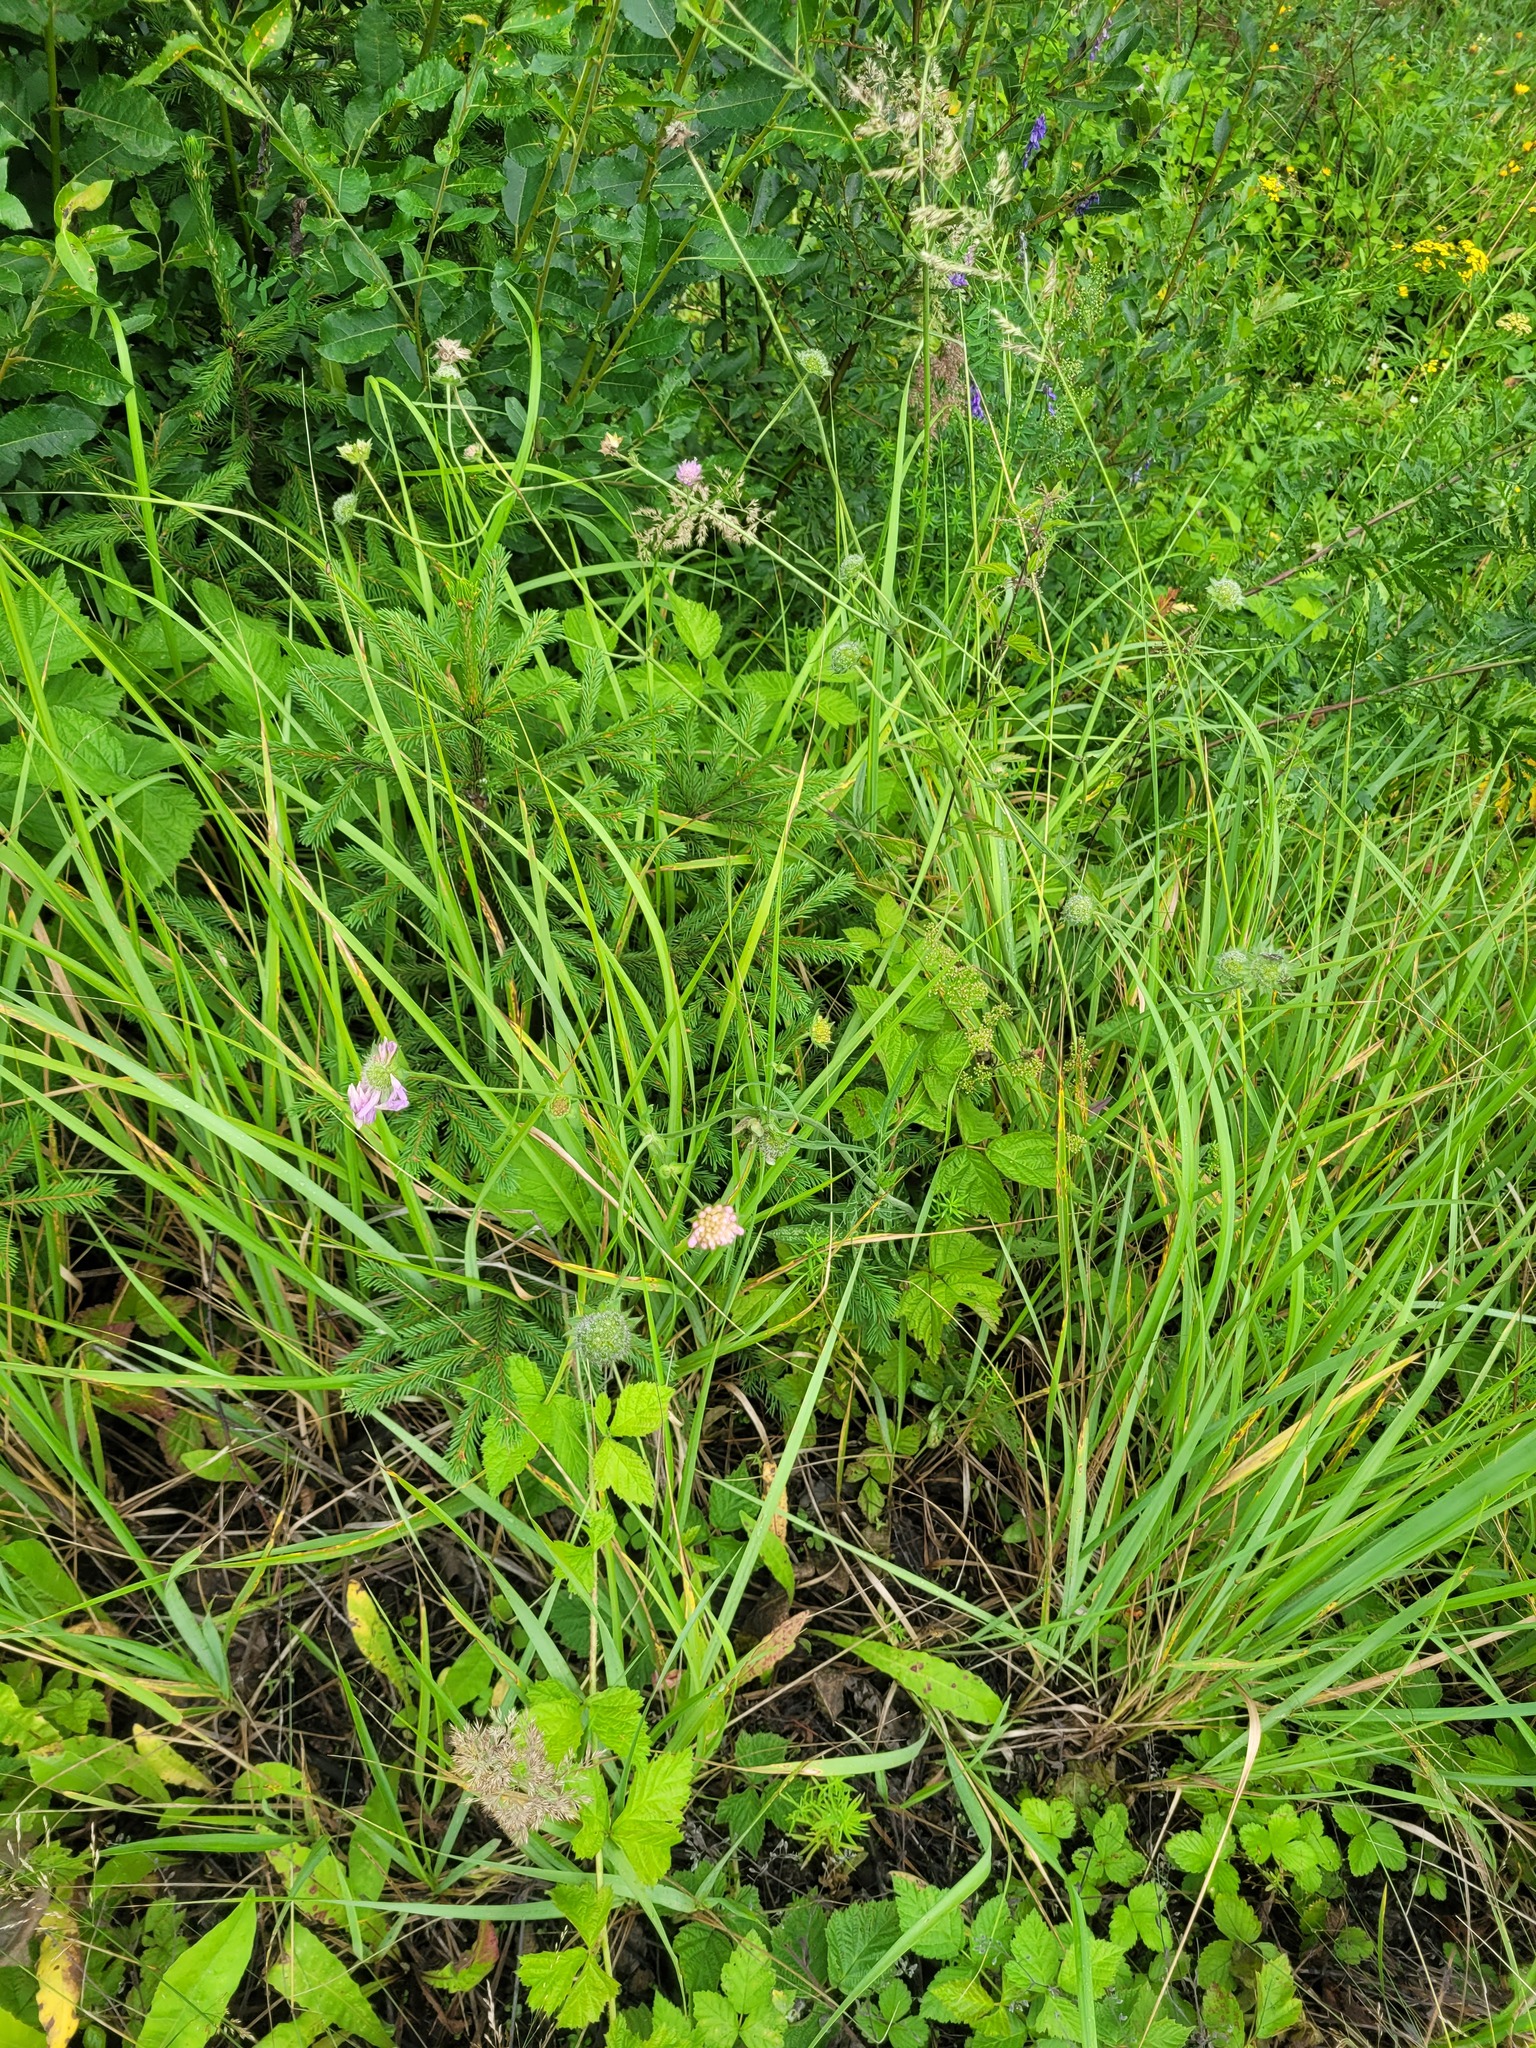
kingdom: Plantae
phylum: Tracheophyta
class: Magnoliopsida
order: Dipsacales
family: Caprifoliaceae
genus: Knautia
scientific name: Knautia arvensis
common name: Field scabiosa
